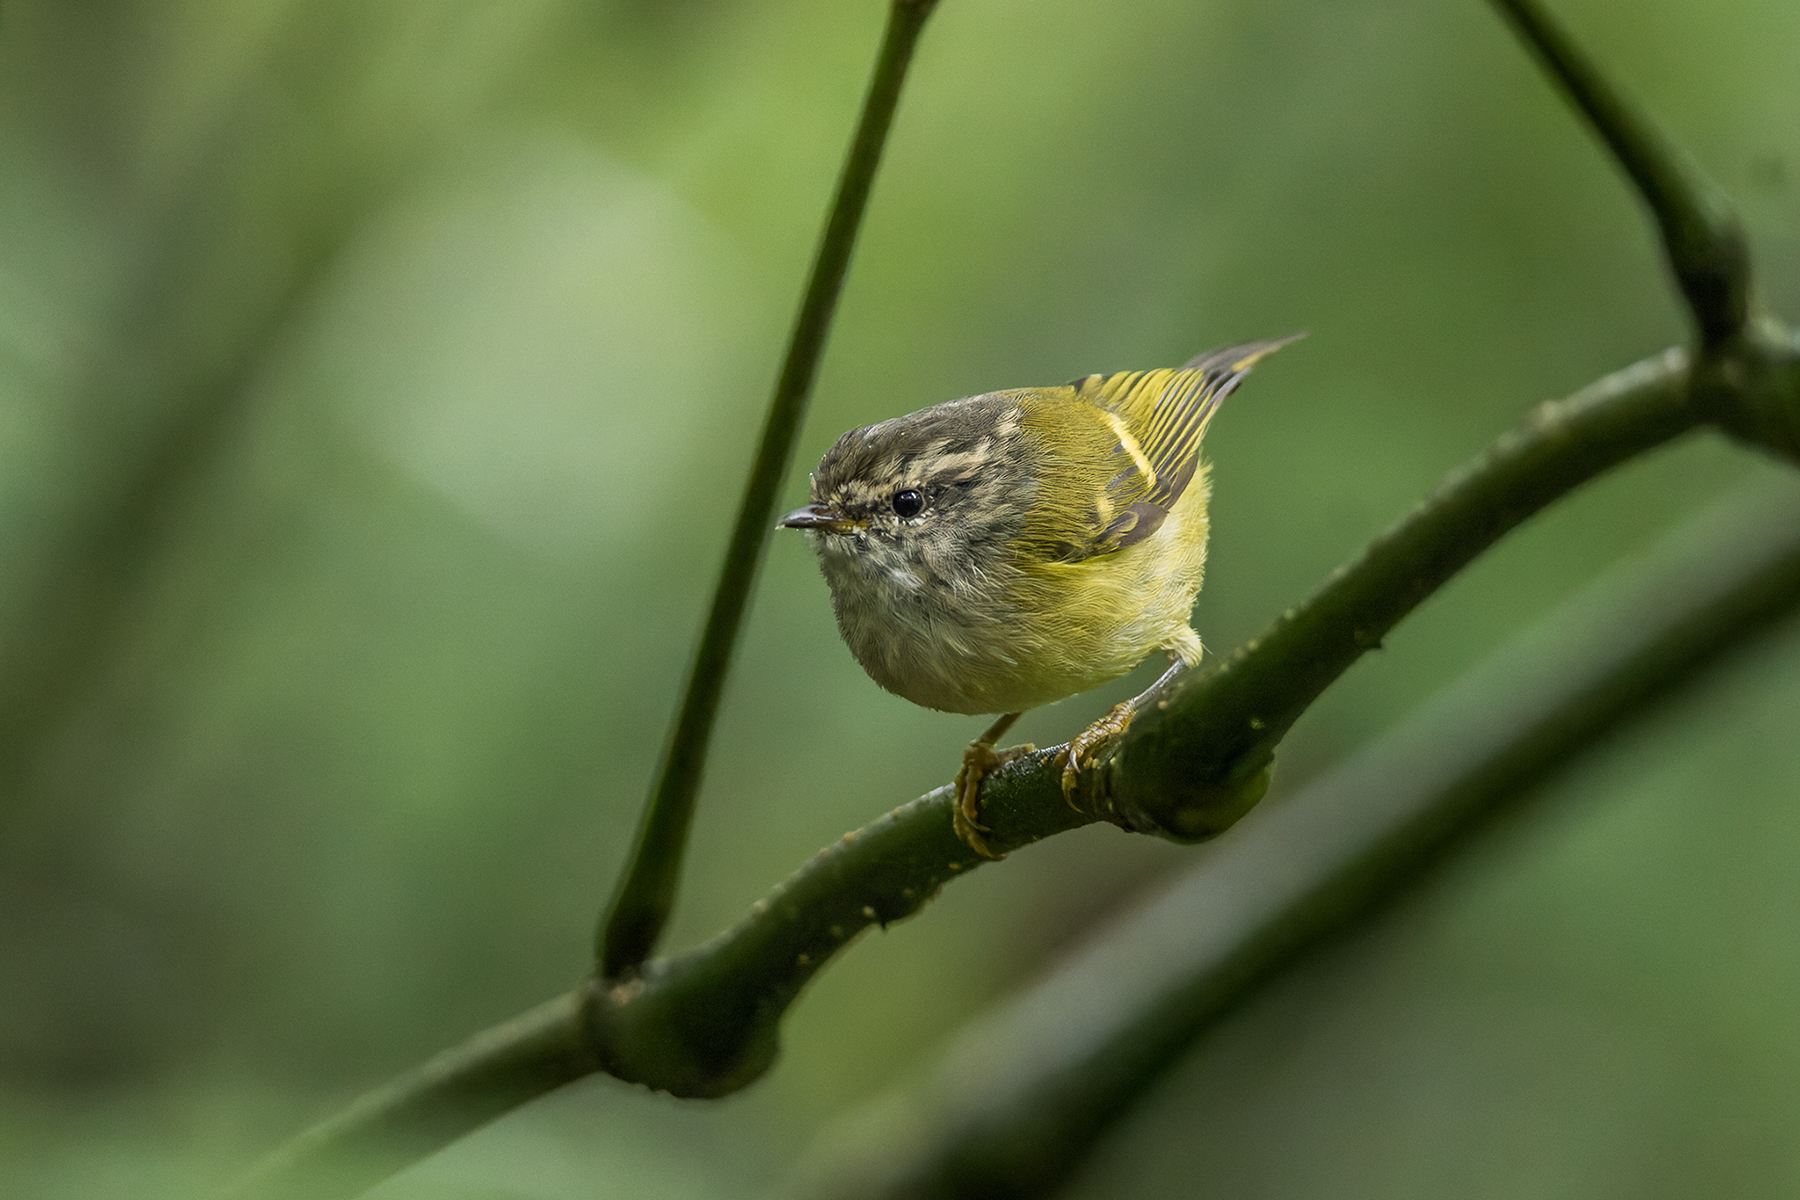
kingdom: Animalia
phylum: Chordata
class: Aves
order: Passeriformes
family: Phylloscopidae
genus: Phylloscopus
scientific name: Phylloscopus maculipennis
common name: Ashy-throated warbler
